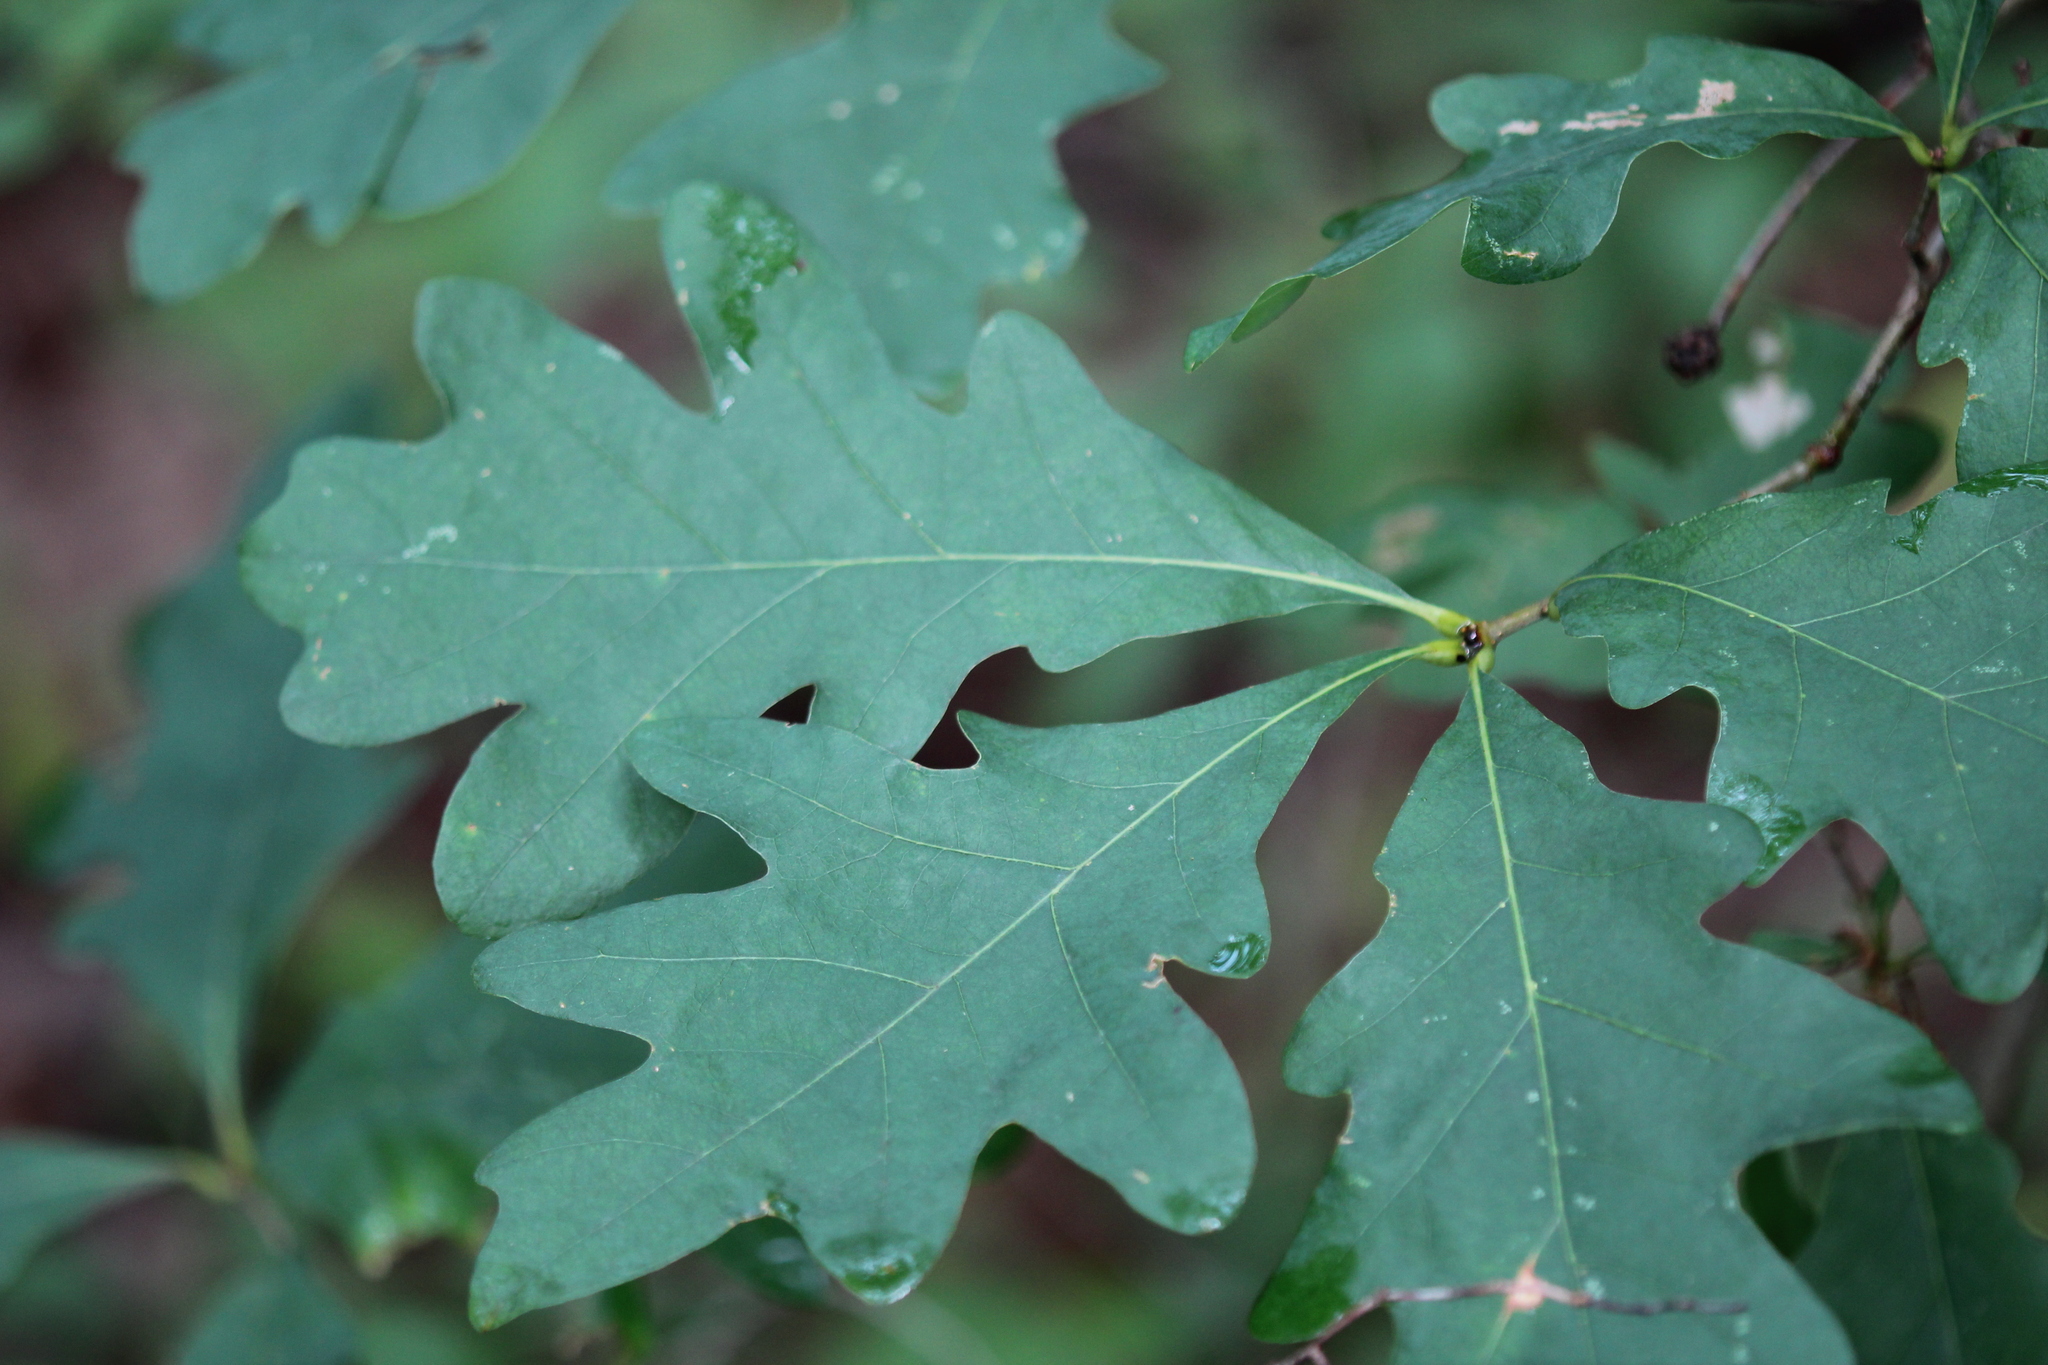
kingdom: Plantae
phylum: Tracheophyta
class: Magnoliopsida
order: Fagales
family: Fagaceae
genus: Quercus
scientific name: Quercus alba
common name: White oak
